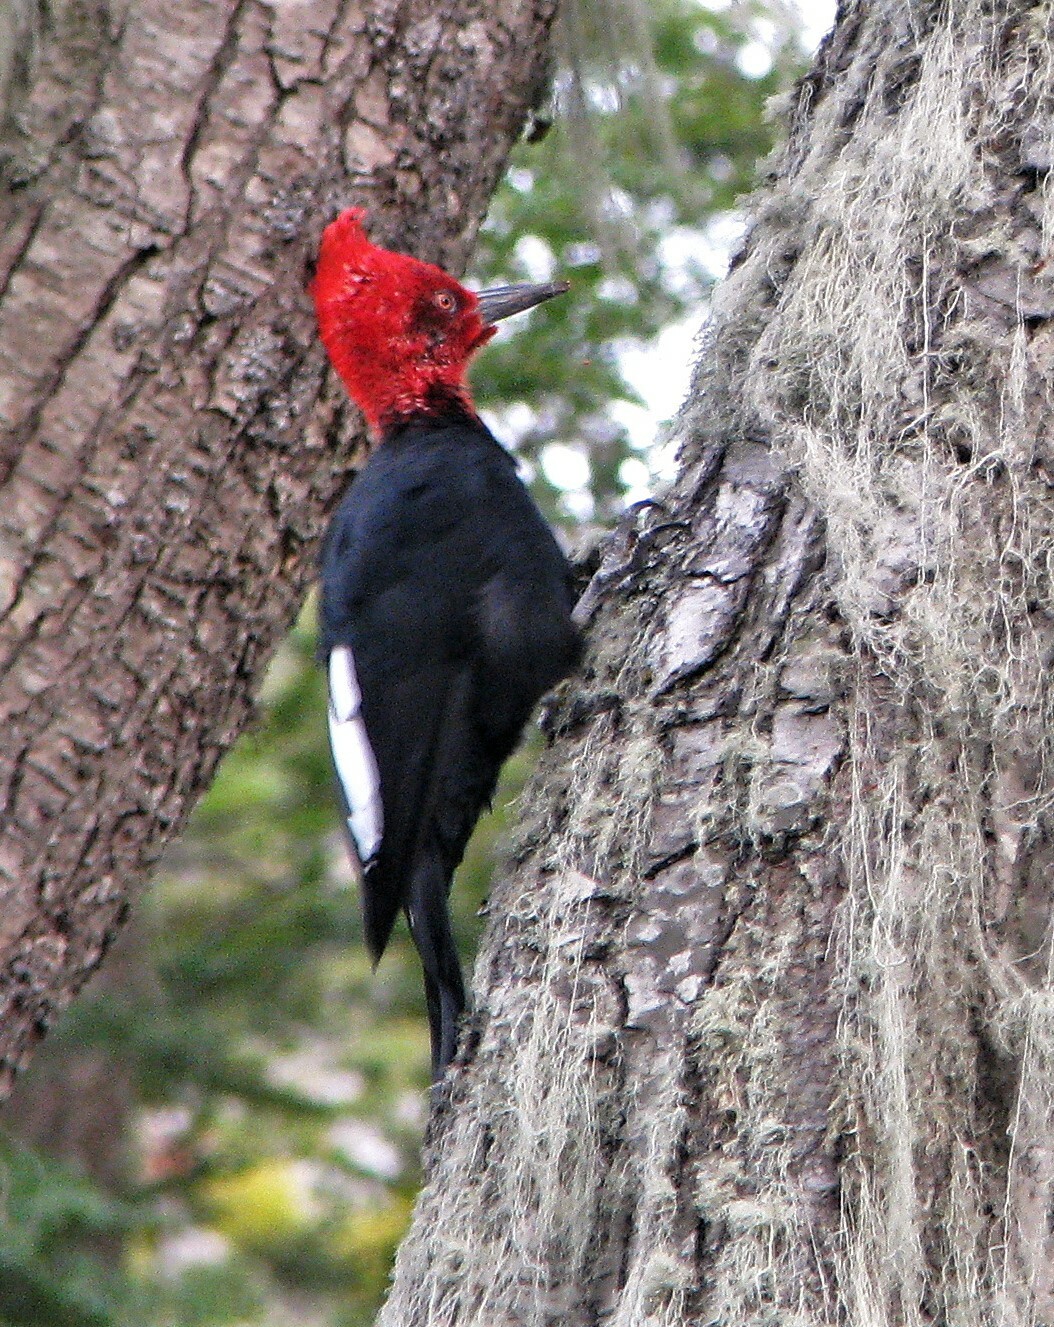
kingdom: Animalia
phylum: Chordata
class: Aves
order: Piciformes
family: Picidae
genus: Campephilus
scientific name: Campephilus magellanicus
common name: Magellanic woodpecker
